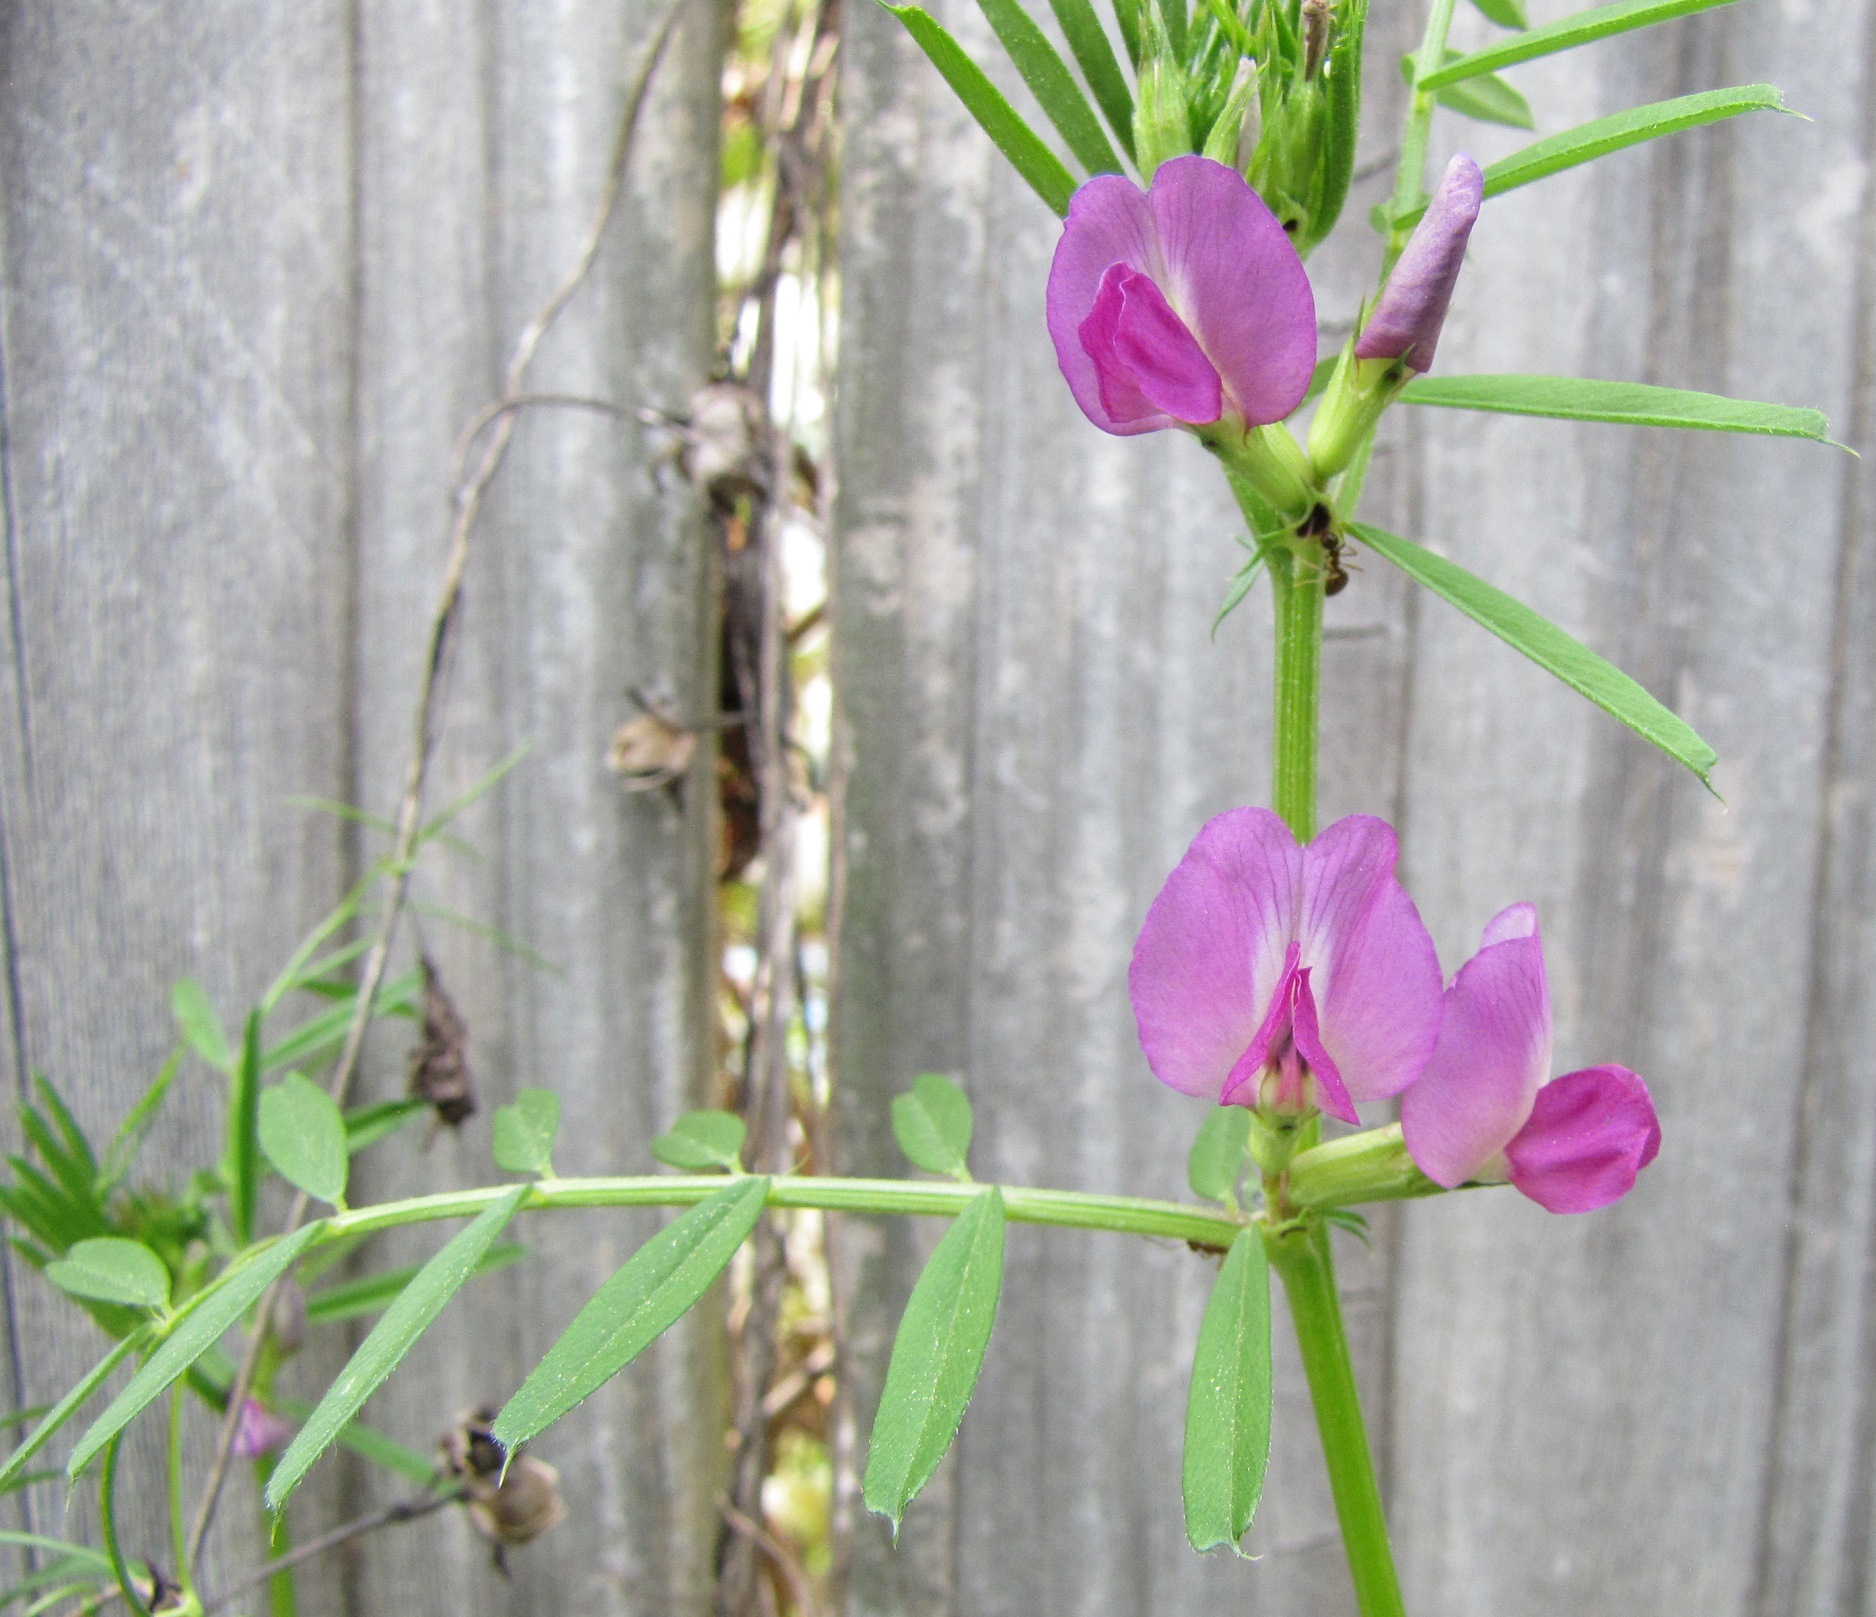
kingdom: Plantae
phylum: Tracheophyta
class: Magnoliopsida
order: Fabales
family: Fabaceae
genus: Vicia
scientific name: Vicia sativa
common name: Garden vetch
